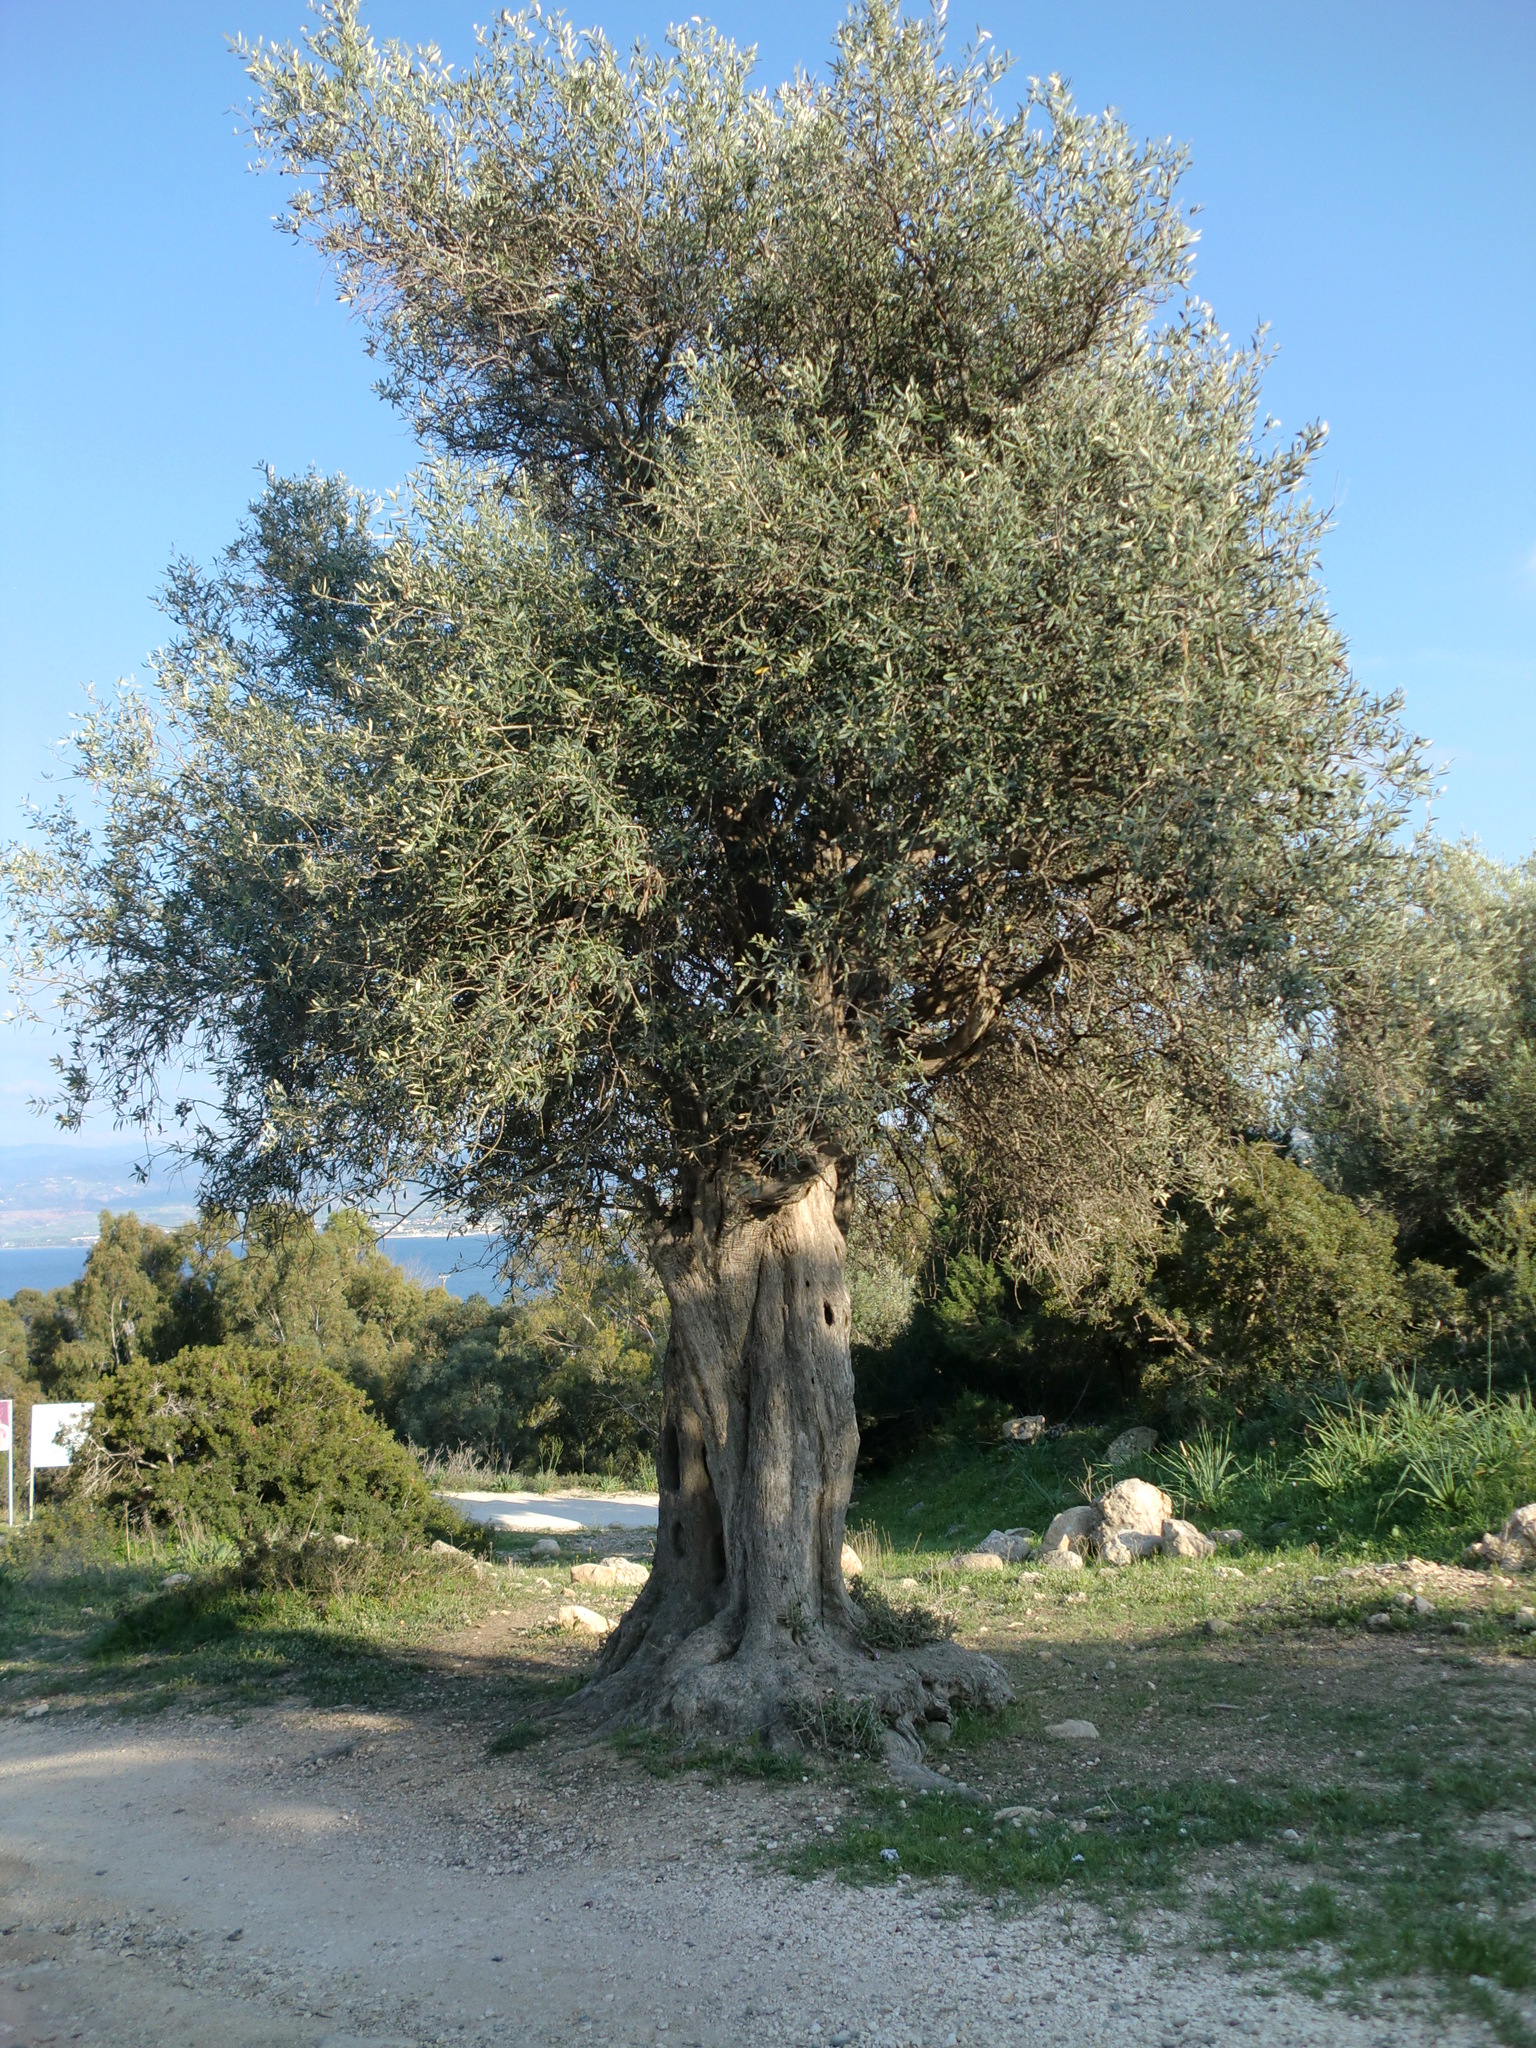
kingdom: Plantae
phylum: Tracheophyta
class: Magnoliopsida
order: Lamiales
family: Oleaceae
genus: Olea
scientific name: Olea europaea
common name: Olive
